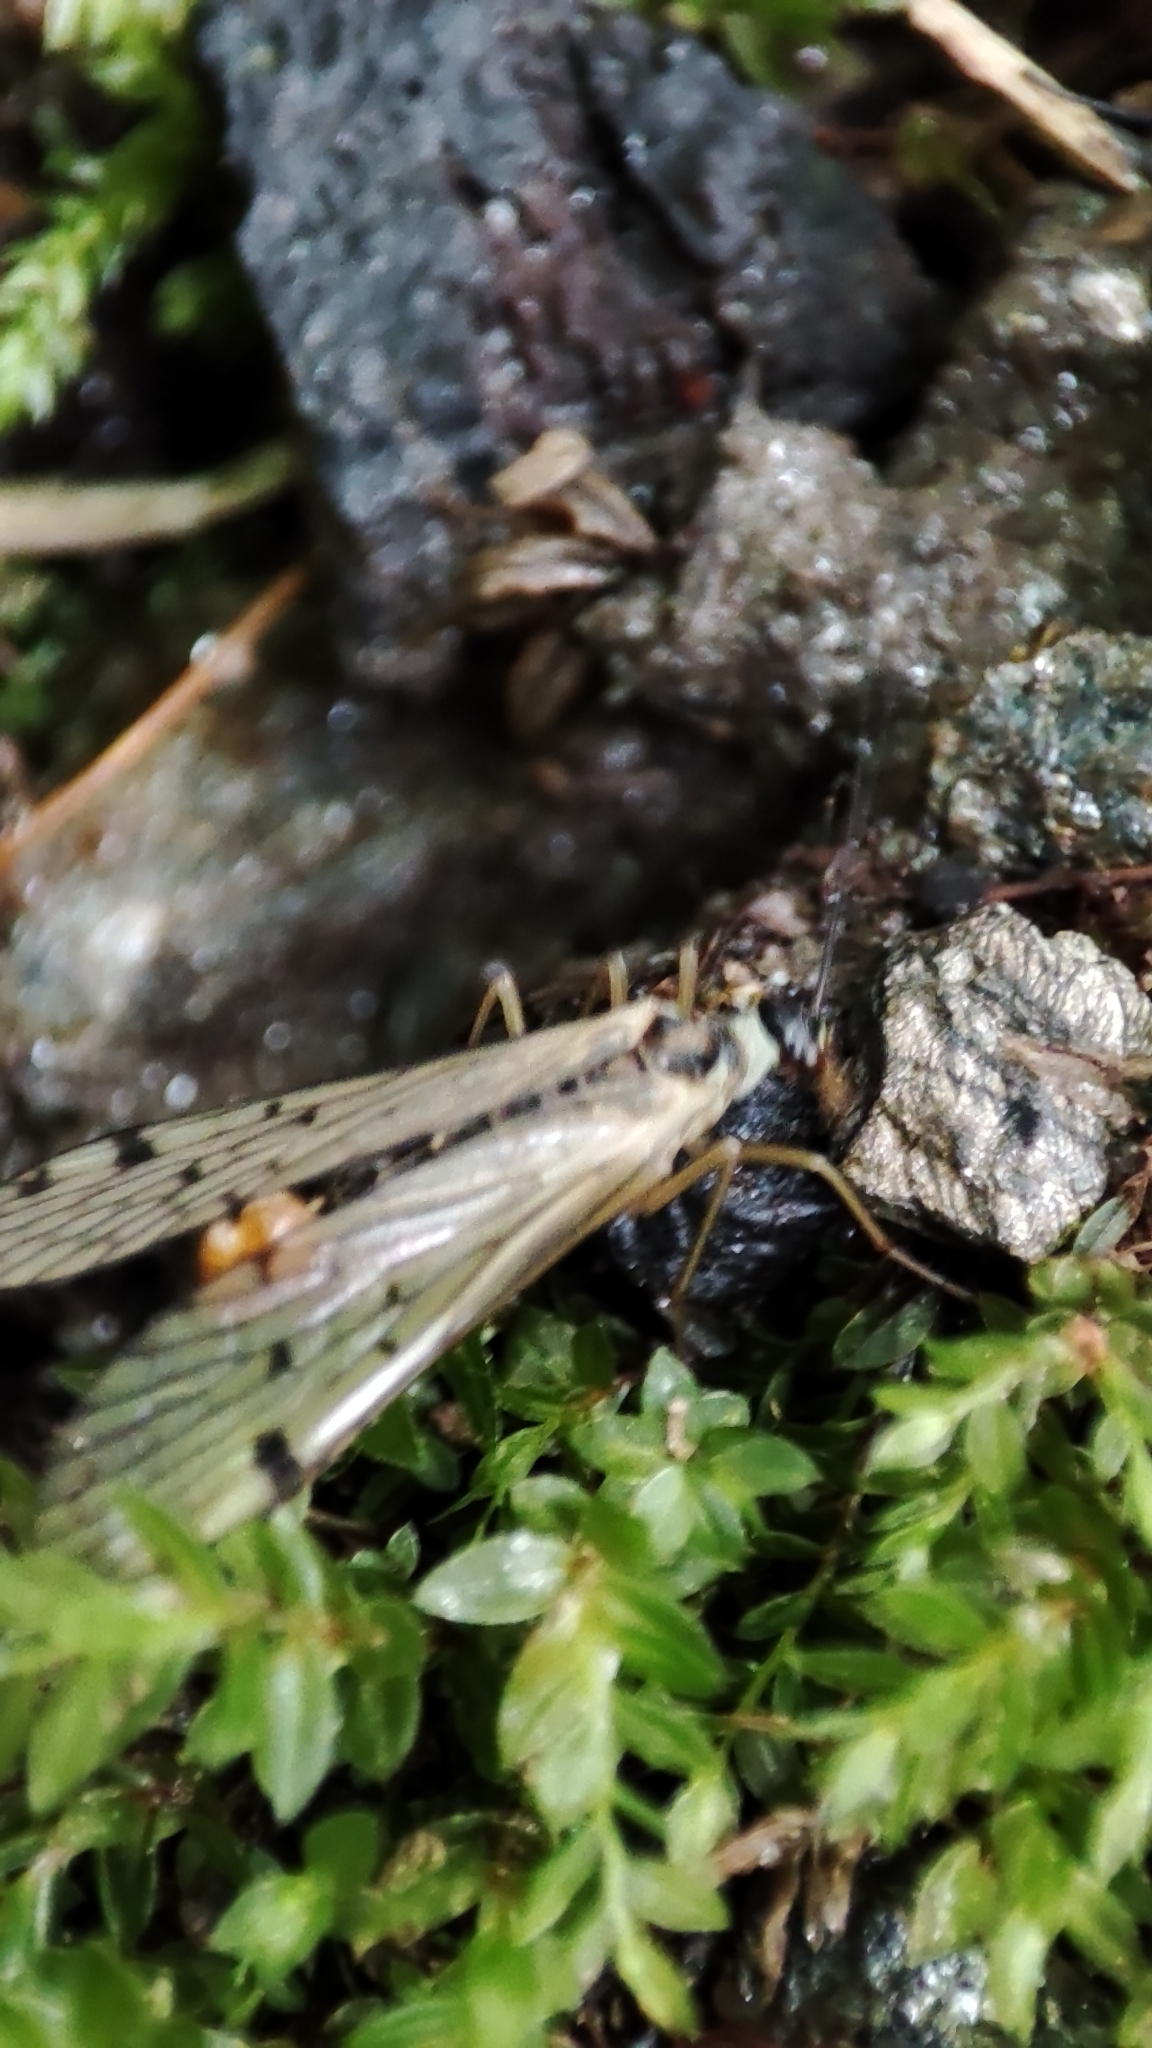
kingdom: Animalia
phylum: Arthropoda
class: Insecta
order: Mecoptera
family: Panorpidae
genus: Panorpa
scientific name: Panorpa alpina
